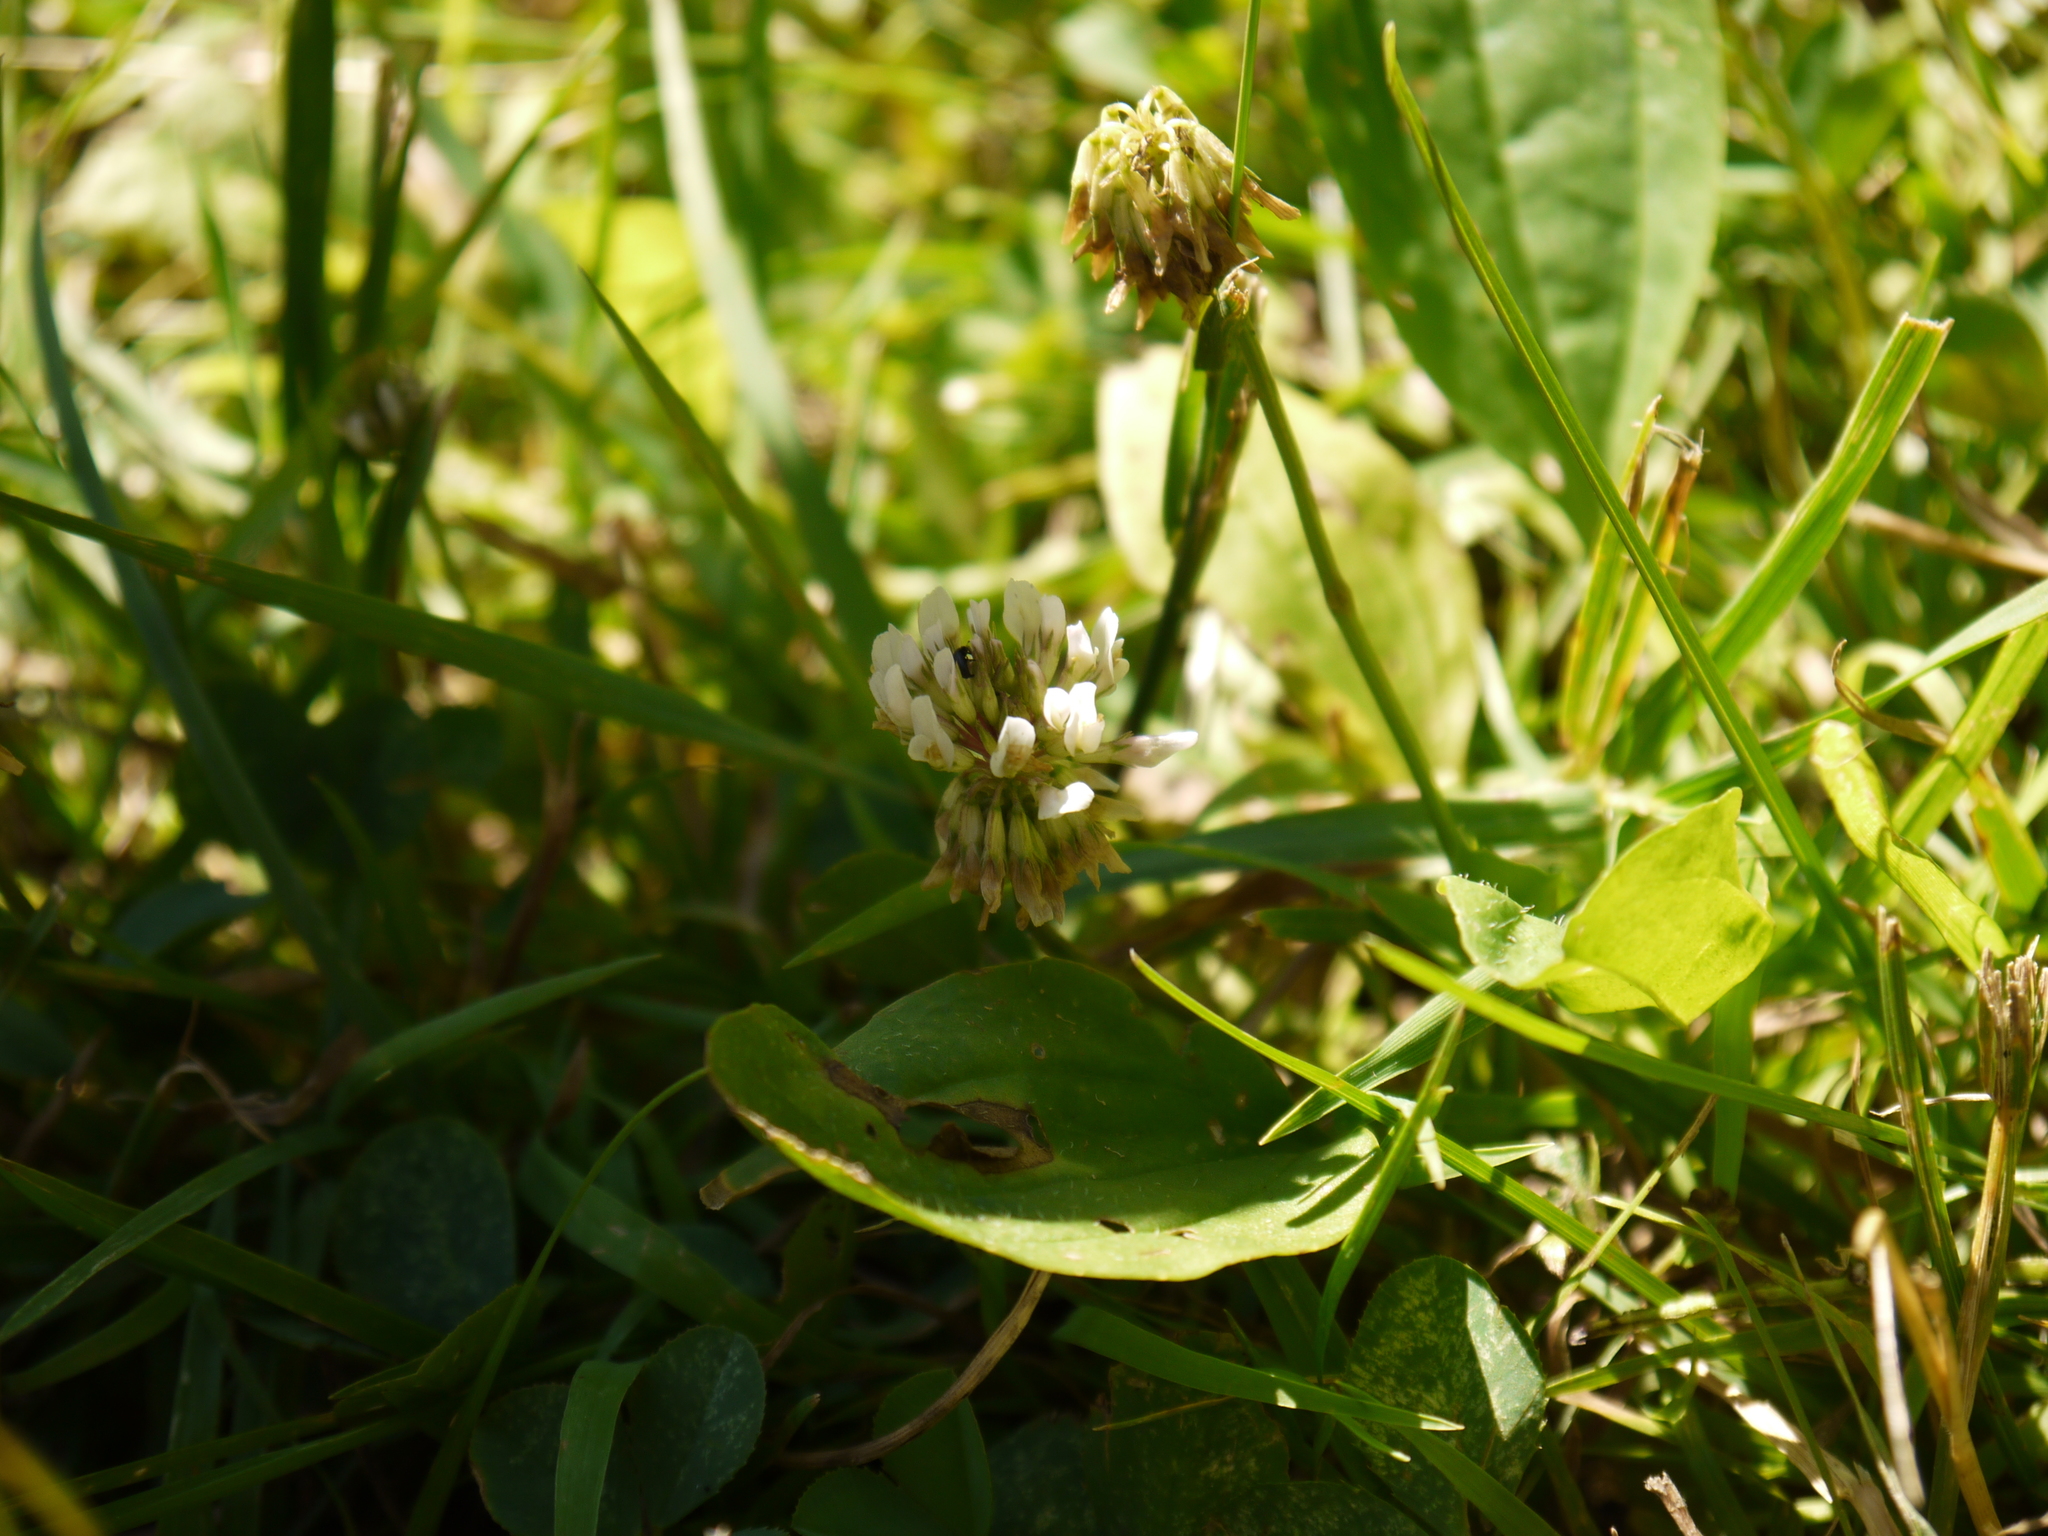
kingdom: Plantae
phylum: Tracheophyta
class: Magnoliopsida
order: Fabales
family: Fabaceae
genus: Trifolium
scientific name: Trifolium repens
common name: White clover
